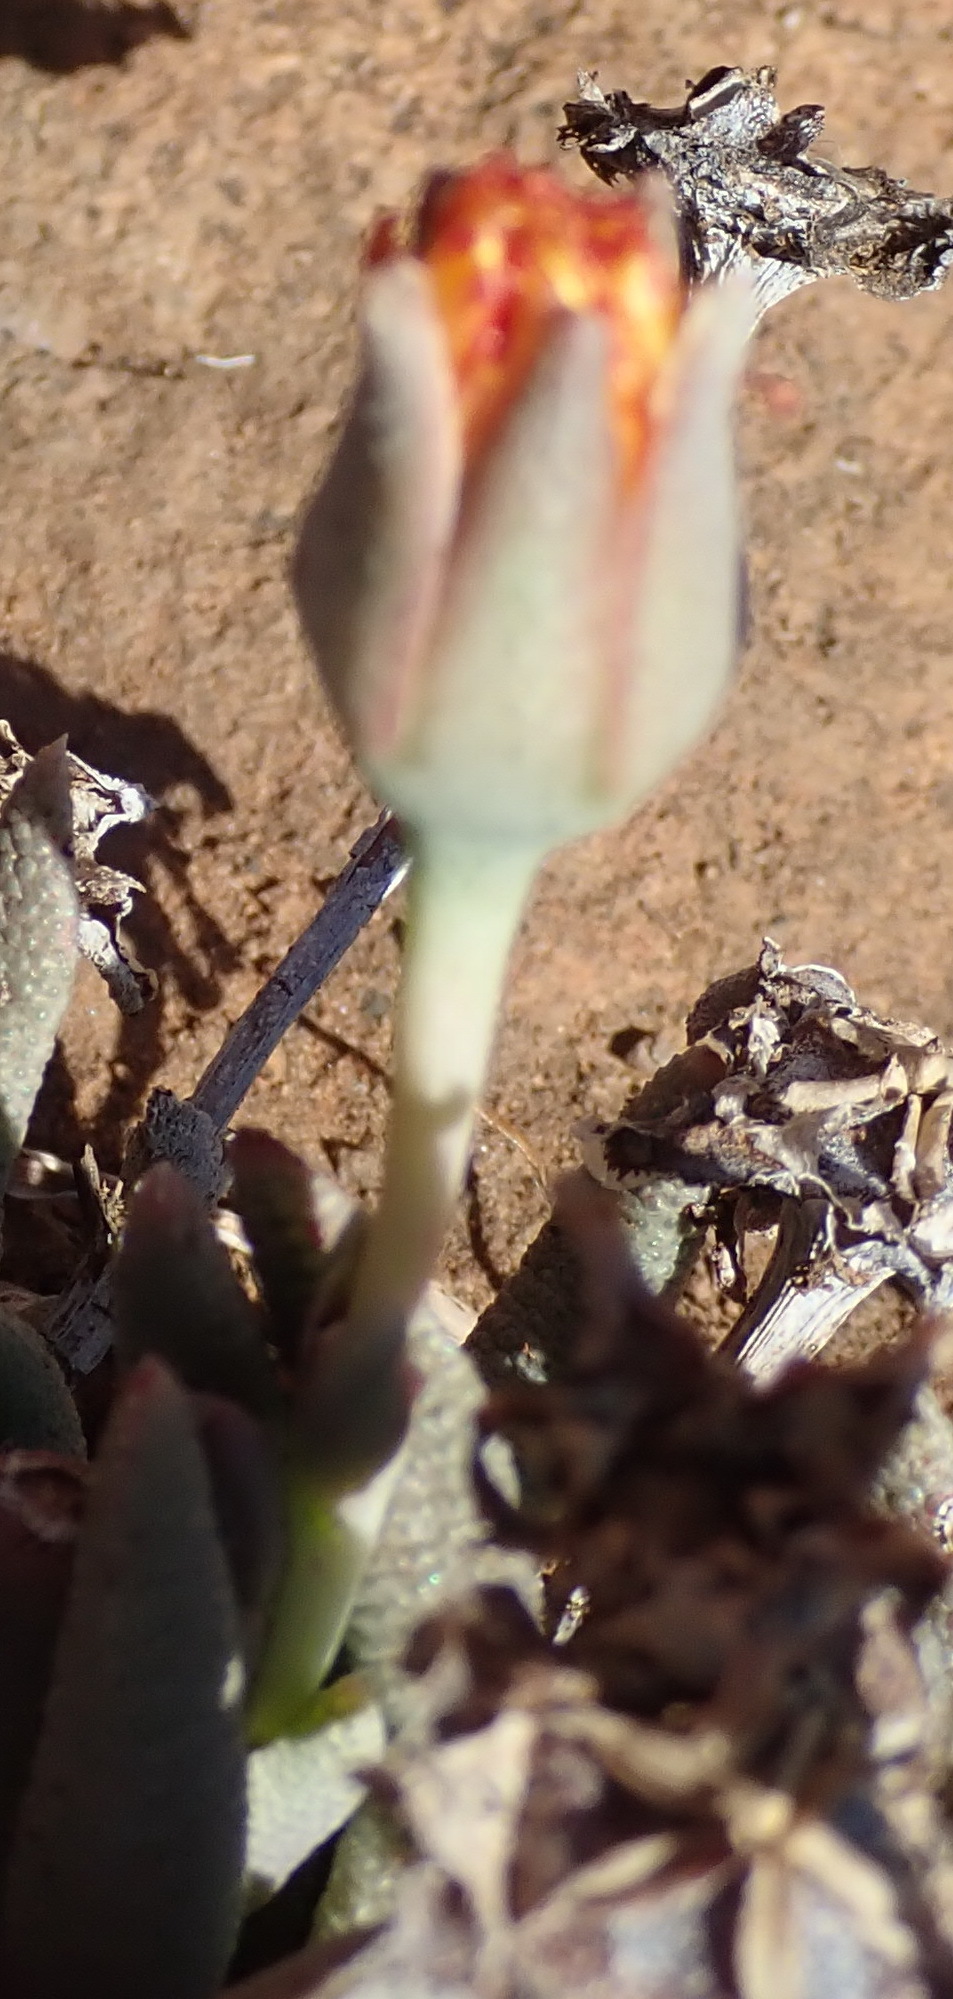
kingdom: Plantae
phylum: Tracheophyta
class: Magnoliopsida
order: Caryophyllales
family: Aizoaceae
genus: Dracophilus
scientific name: Dracophilus Hereroa glenensis
